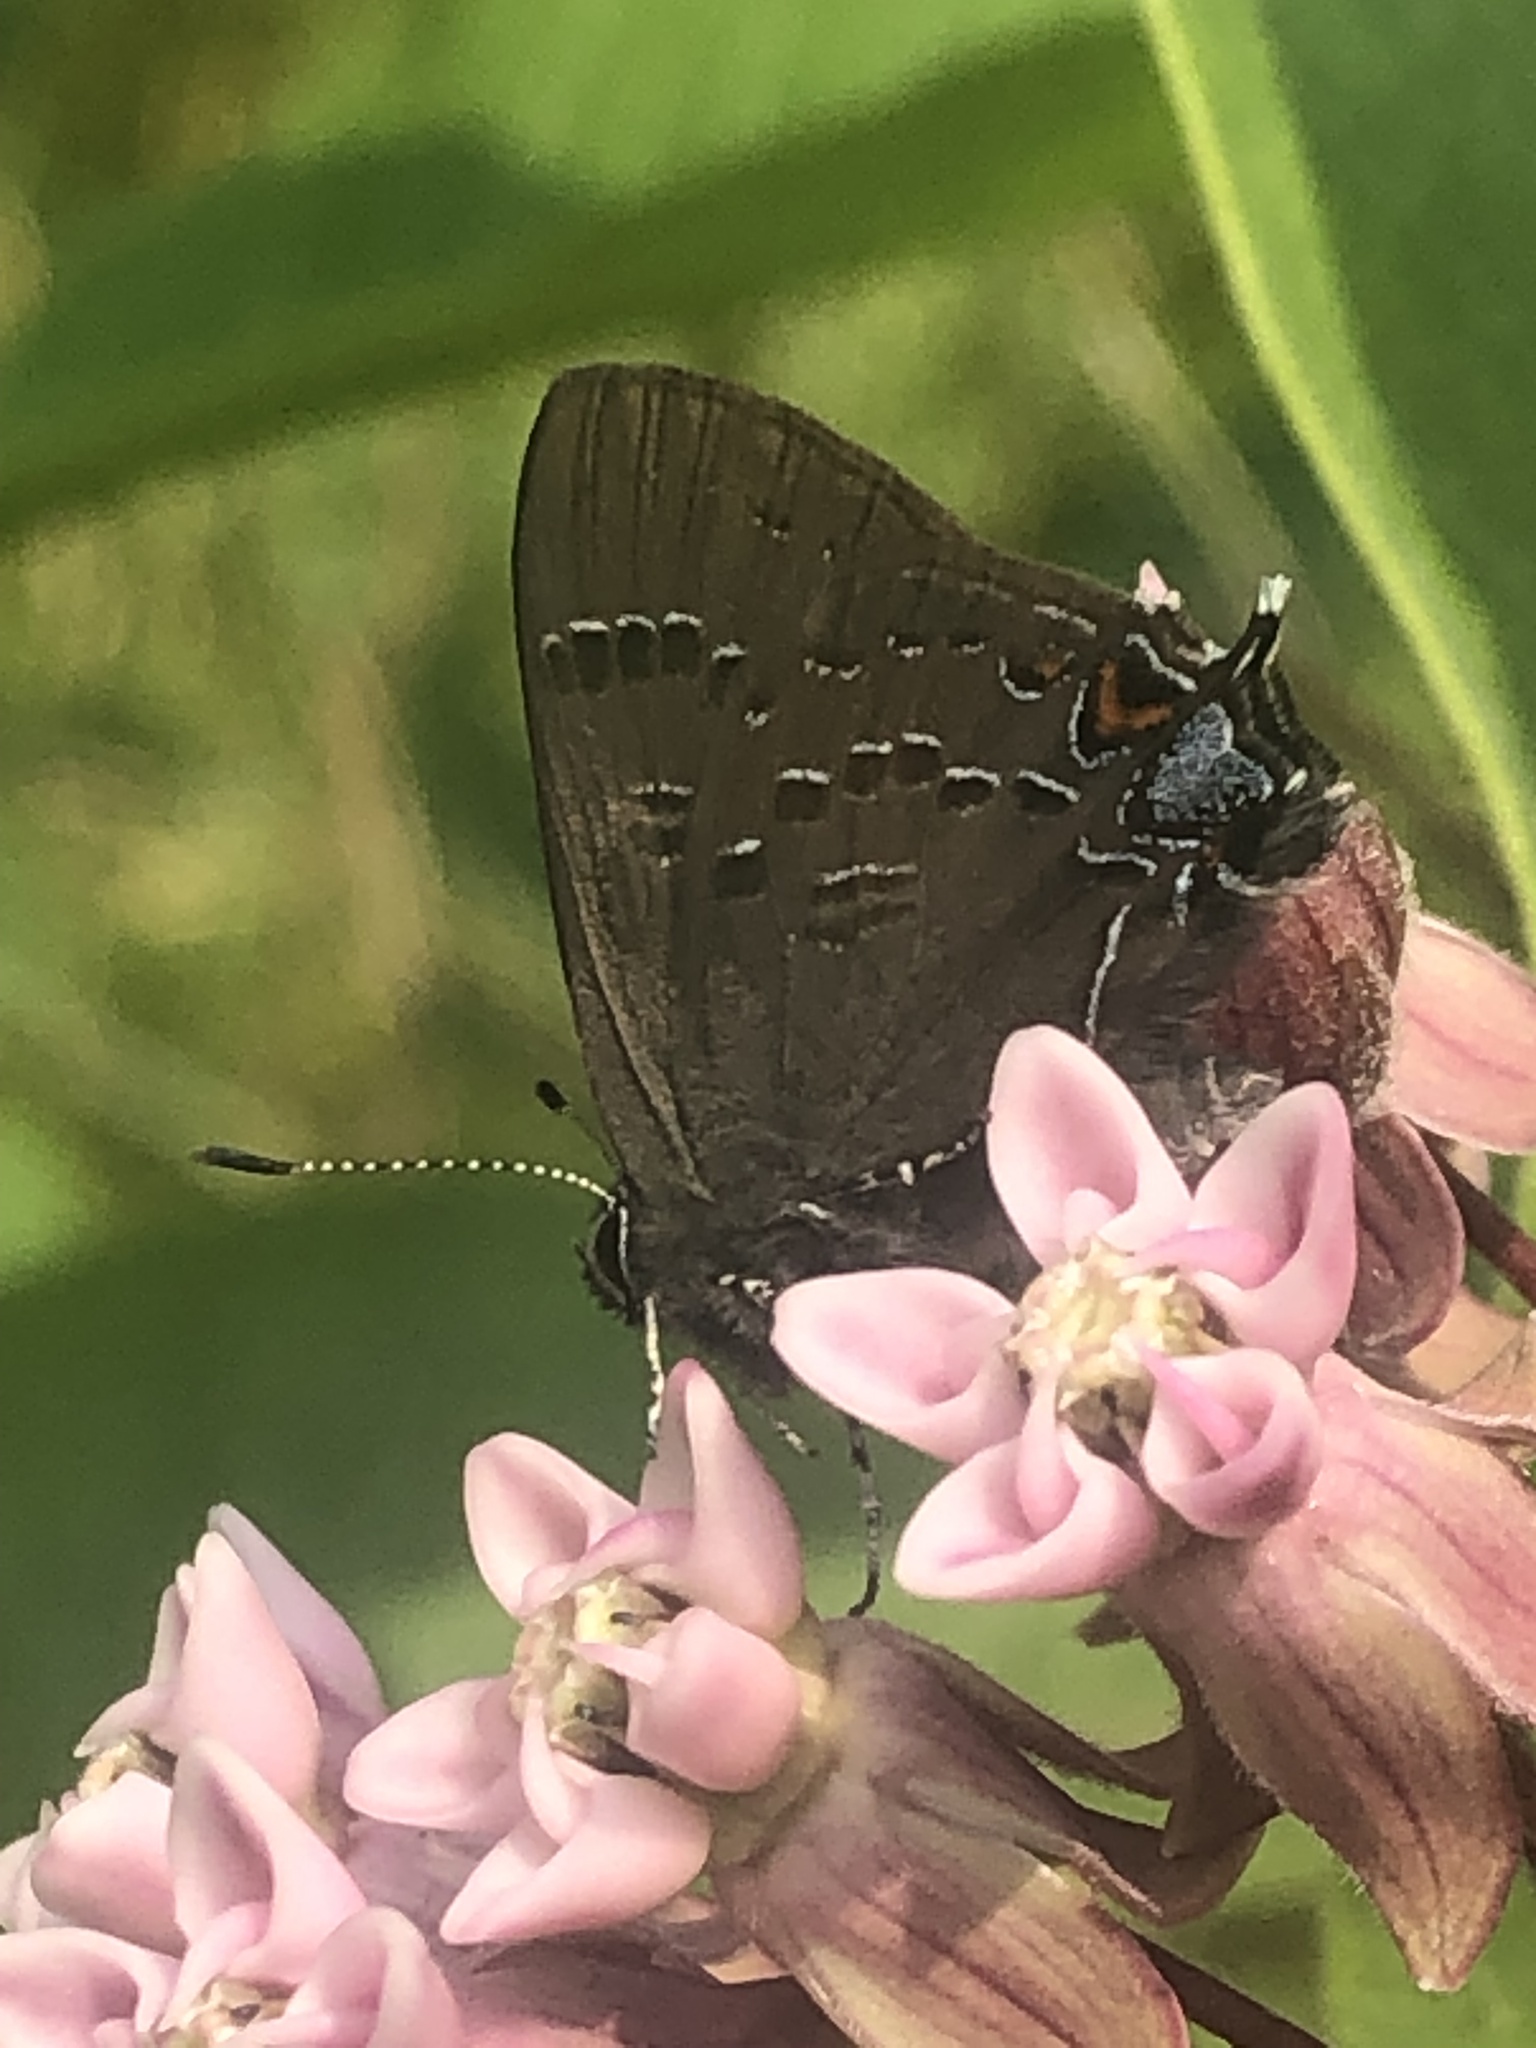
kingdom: Animalia
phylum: Arthropoda
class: Insecta
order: Lepidoptera
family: Lycaenidae
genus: Satyrium
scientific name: Satyrium calanus
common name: Banded hairstreak
